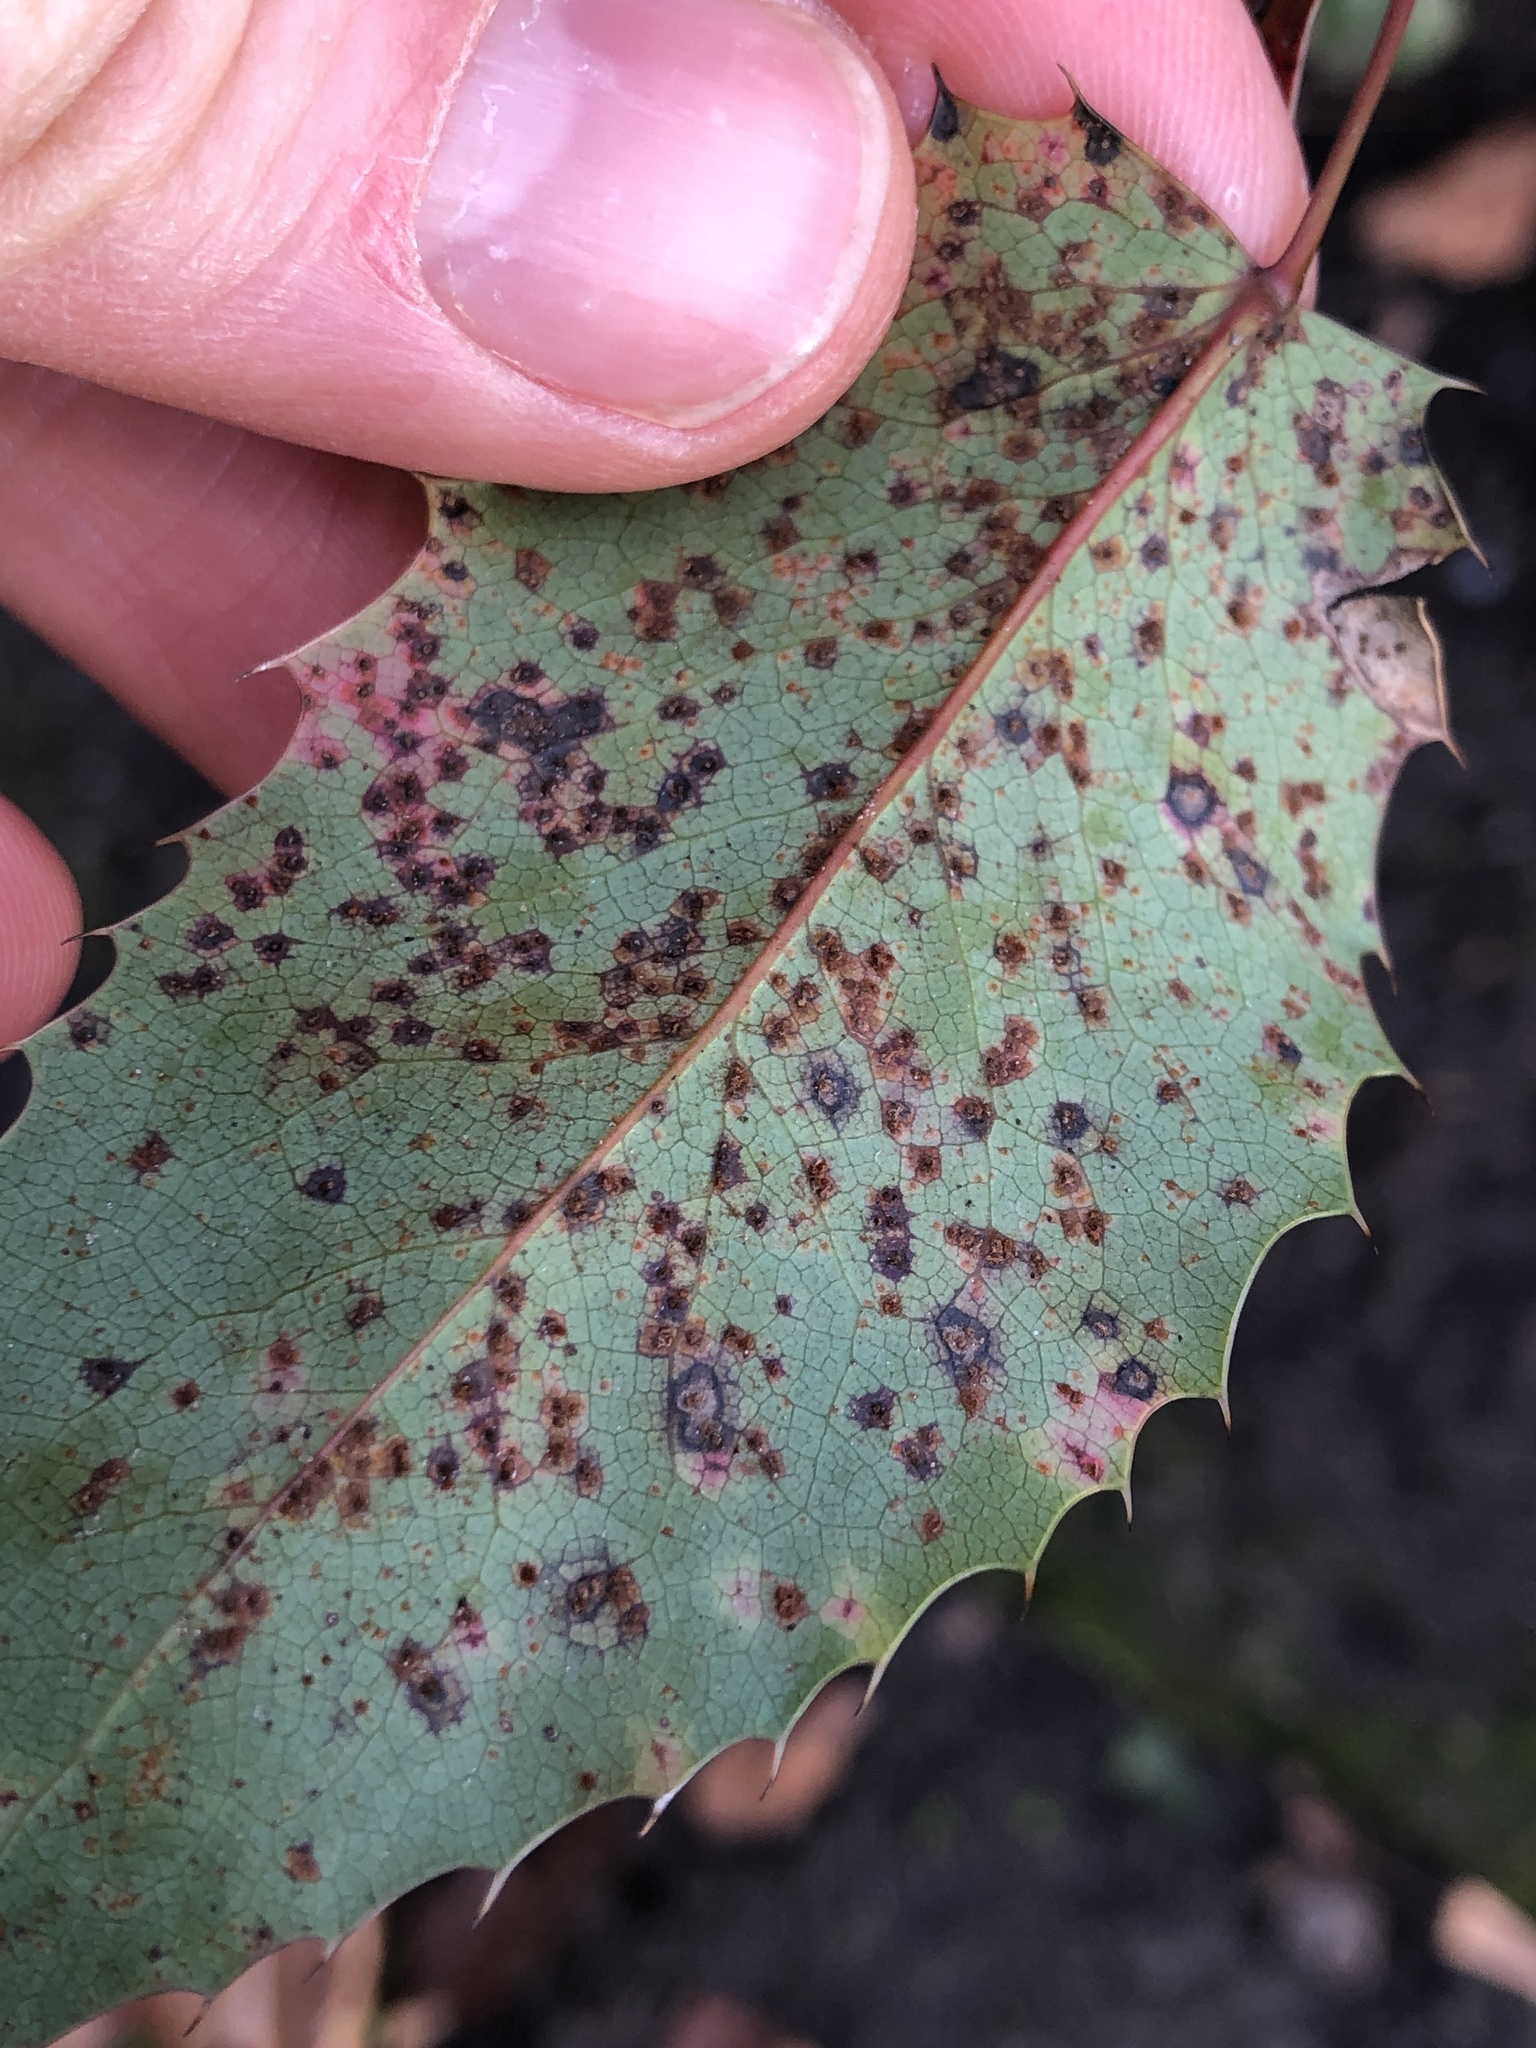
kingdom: Fungi
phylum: Basidiomycota
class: Pucciniomycetes
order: Pucciniales
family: Pucciniaceae
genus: Cumminsiella
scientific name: Cumminsiella mirabilissima
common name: Mahonia rust
